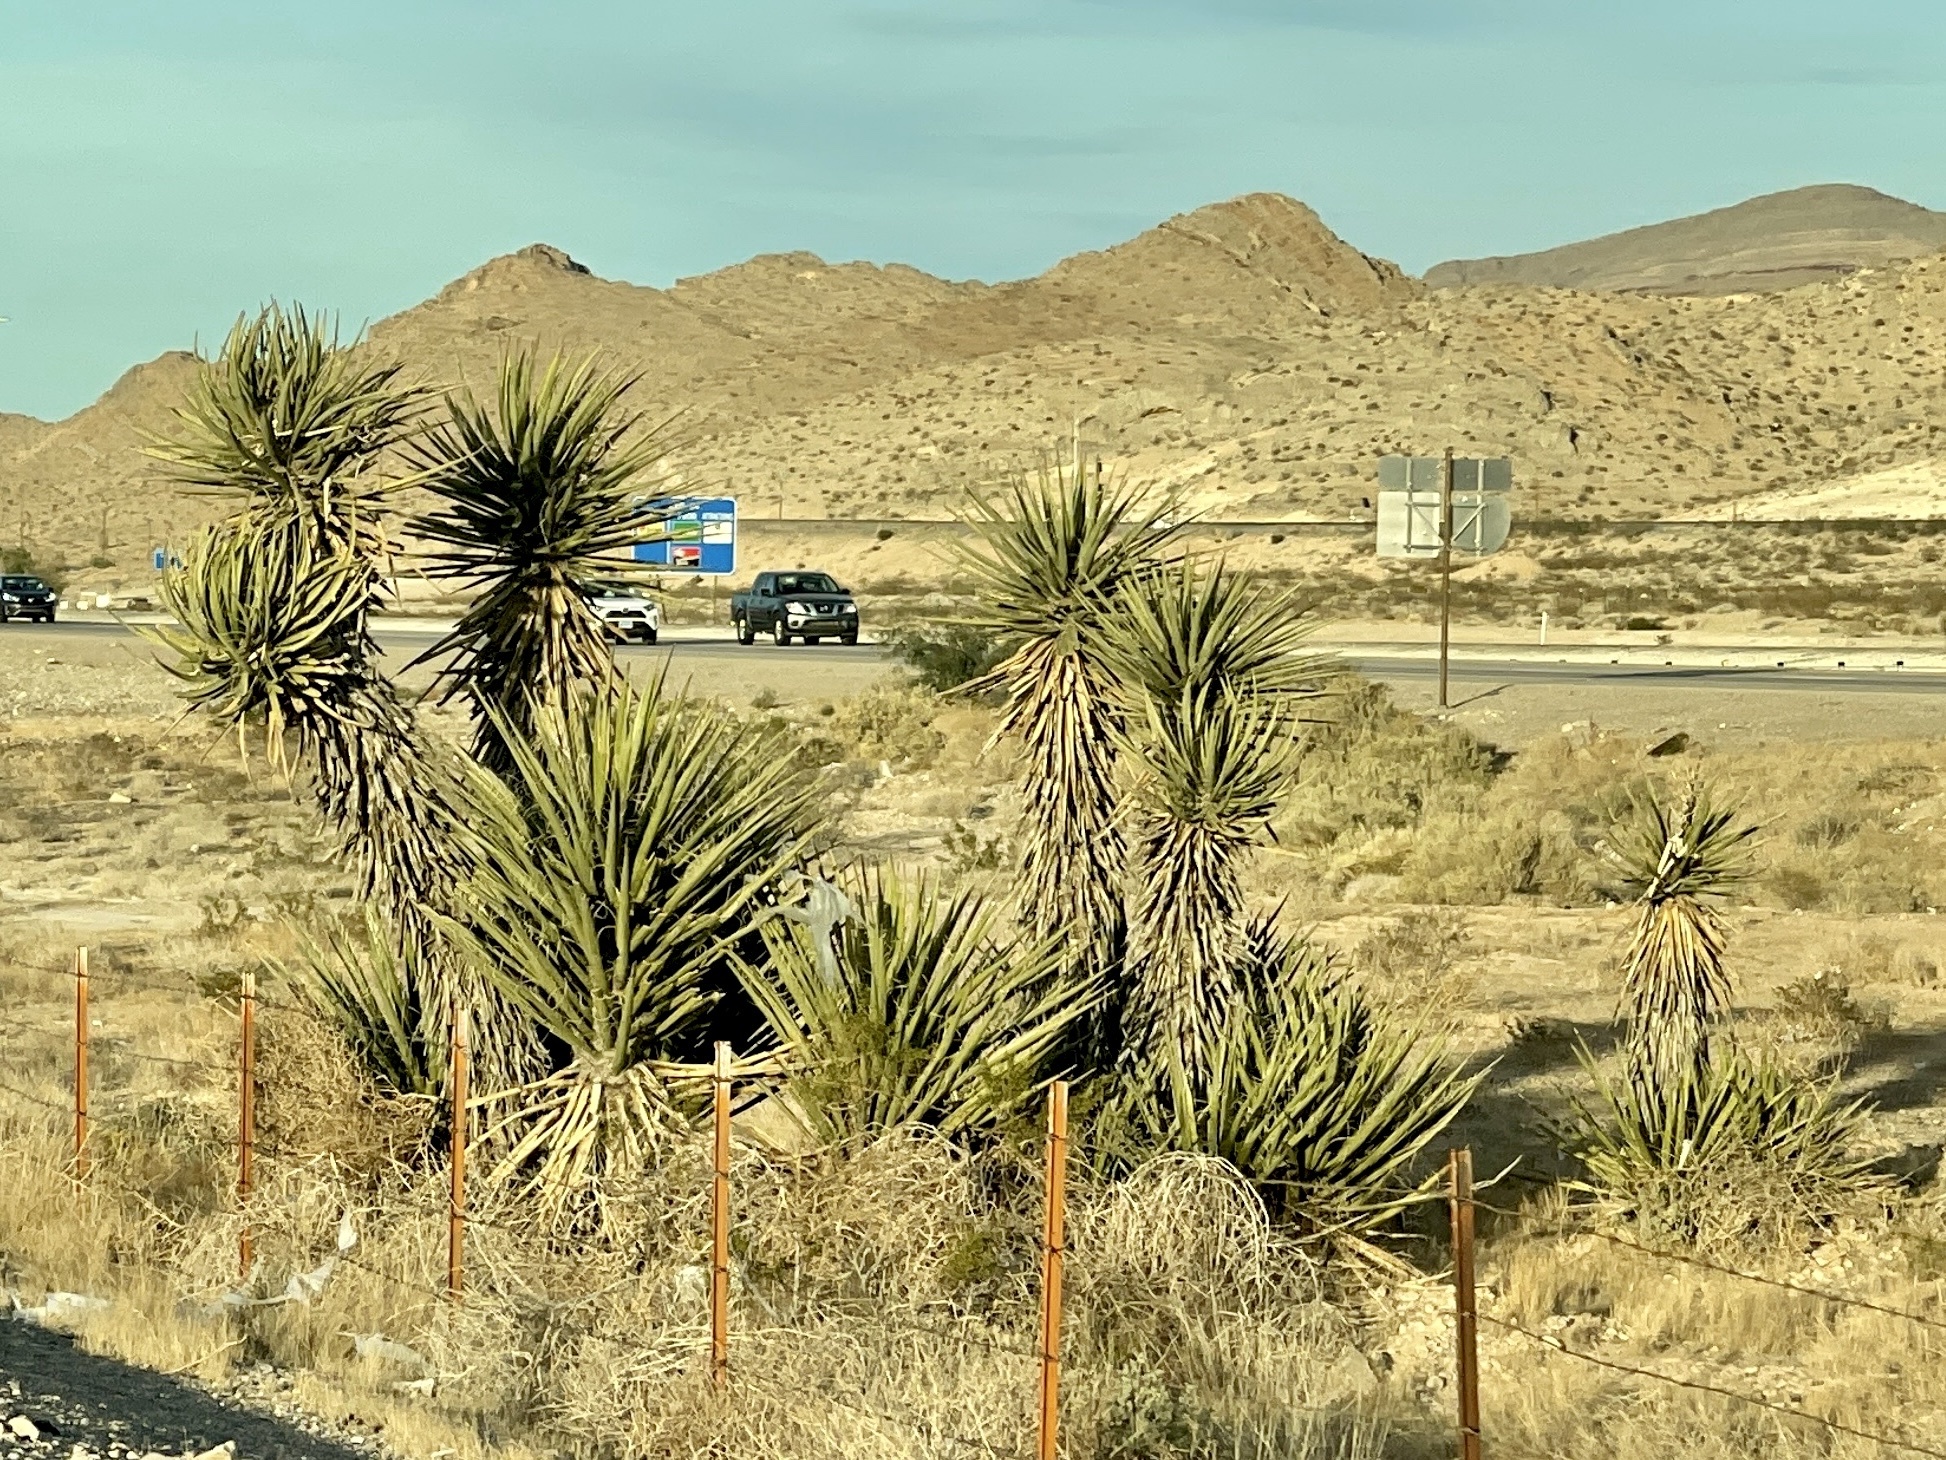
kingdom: Plantae
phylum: Tracheophyta
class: Liliopsida
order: Asparagales
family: Asparagaceae
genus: Yucca
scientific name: Yucca schidigera
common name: Mojave yucca
